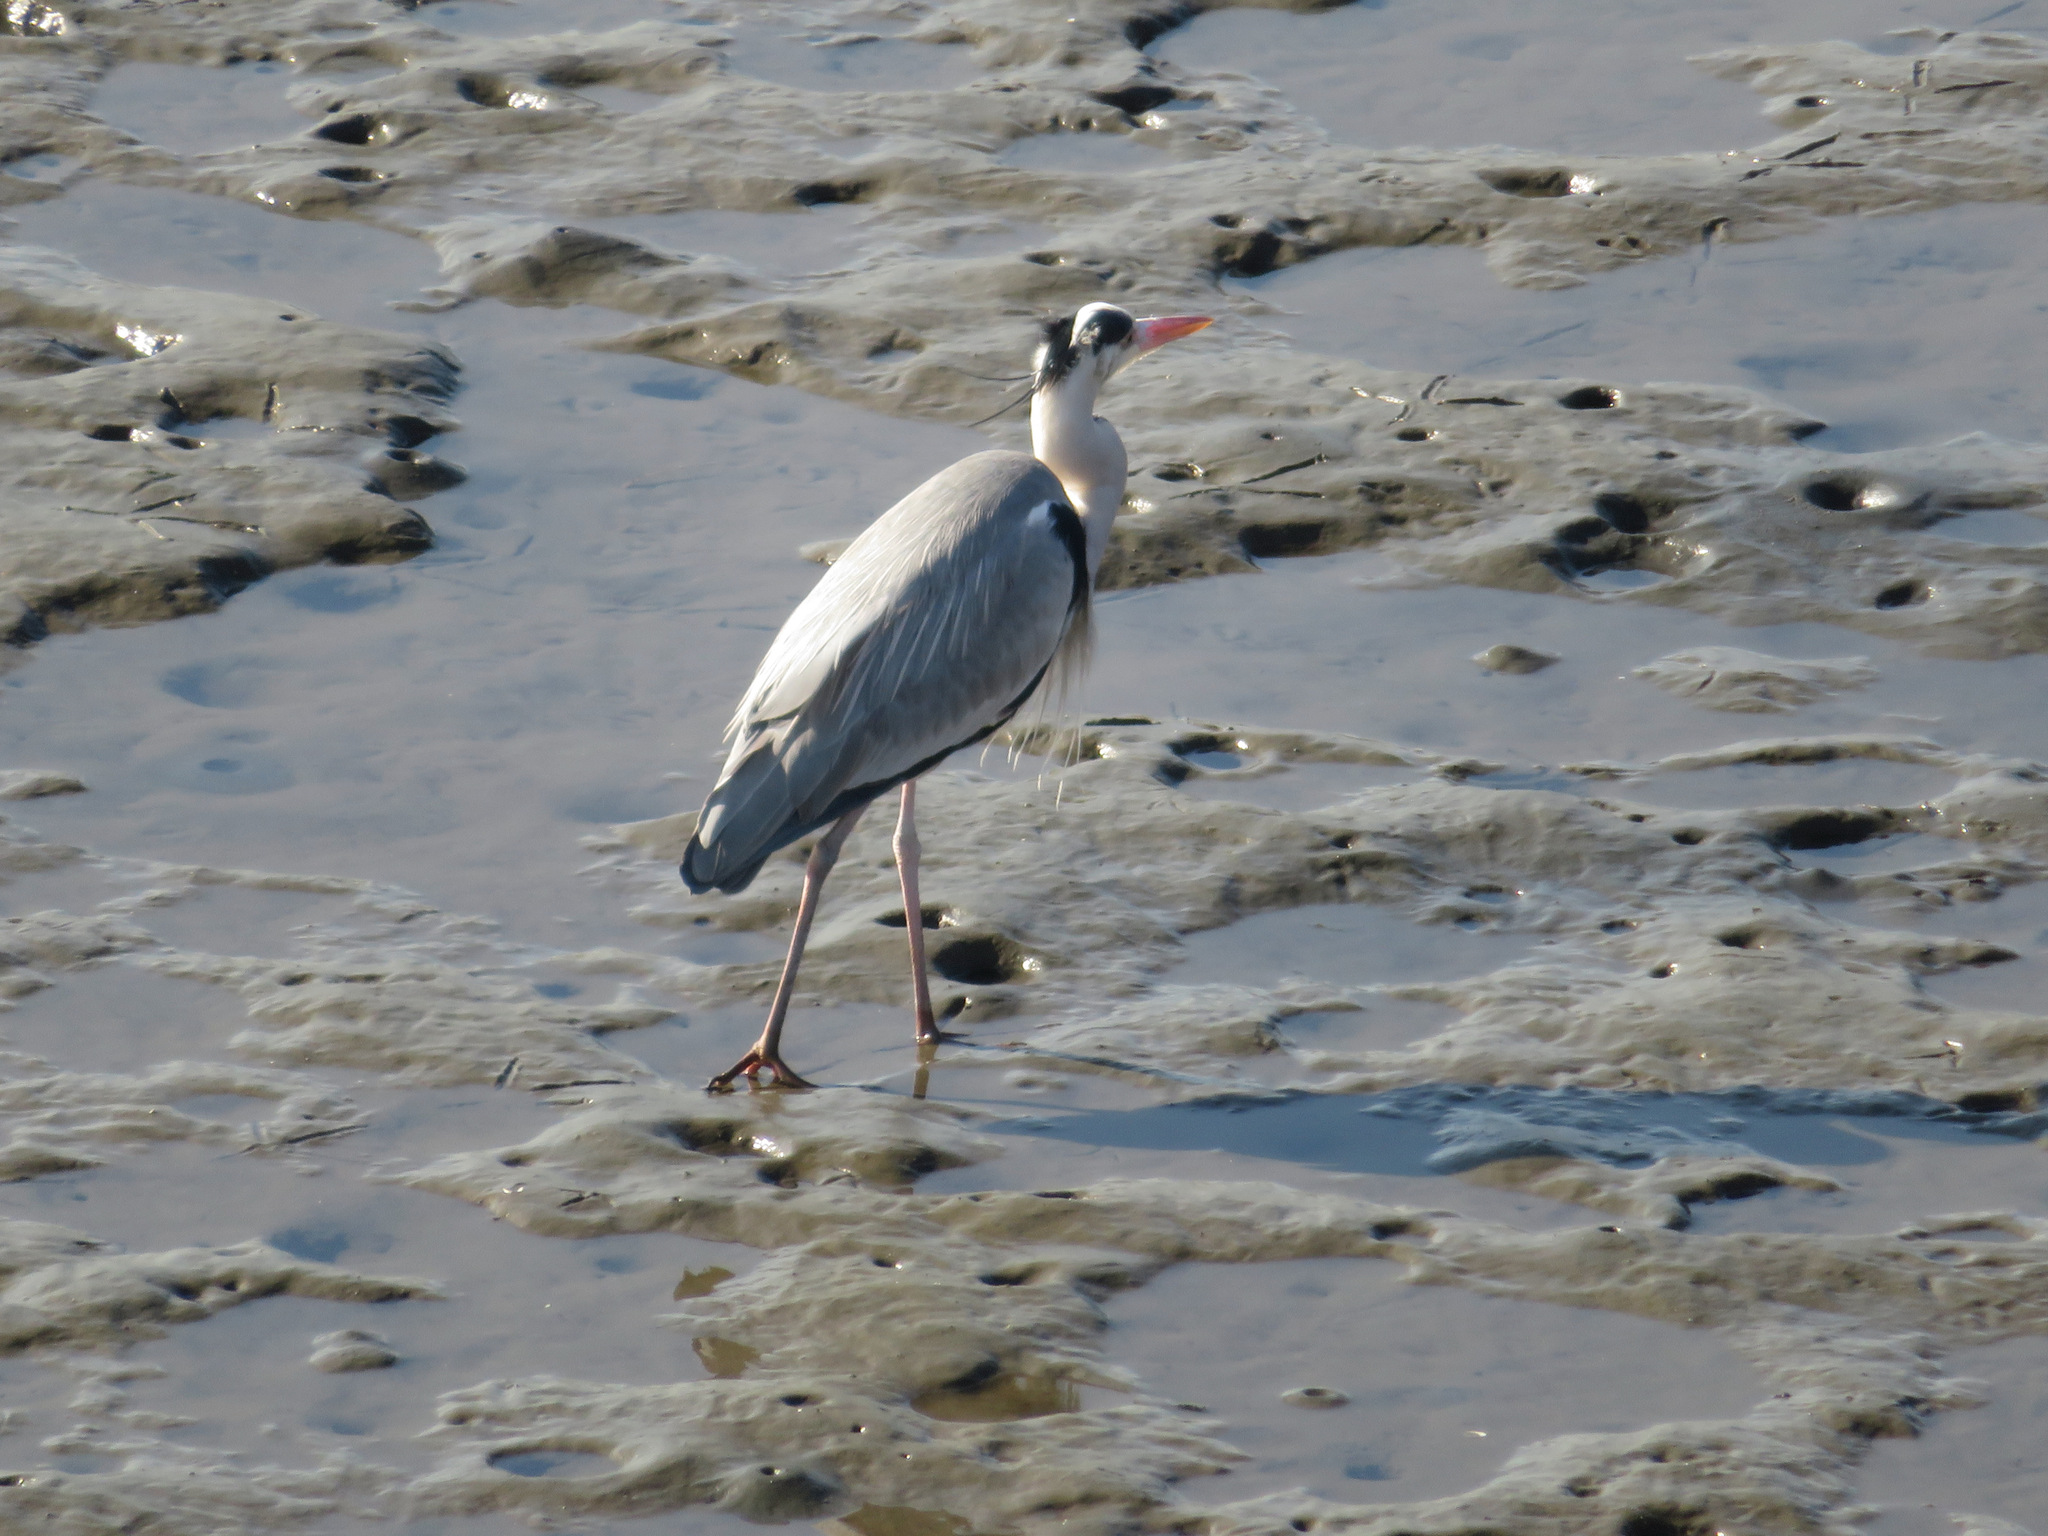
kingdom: Animalia
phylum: Chordata
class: Aves
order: Pelecaniformes
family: Ardeidae
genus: Ardea
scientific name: Ardea cinerea
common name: Grey heron
